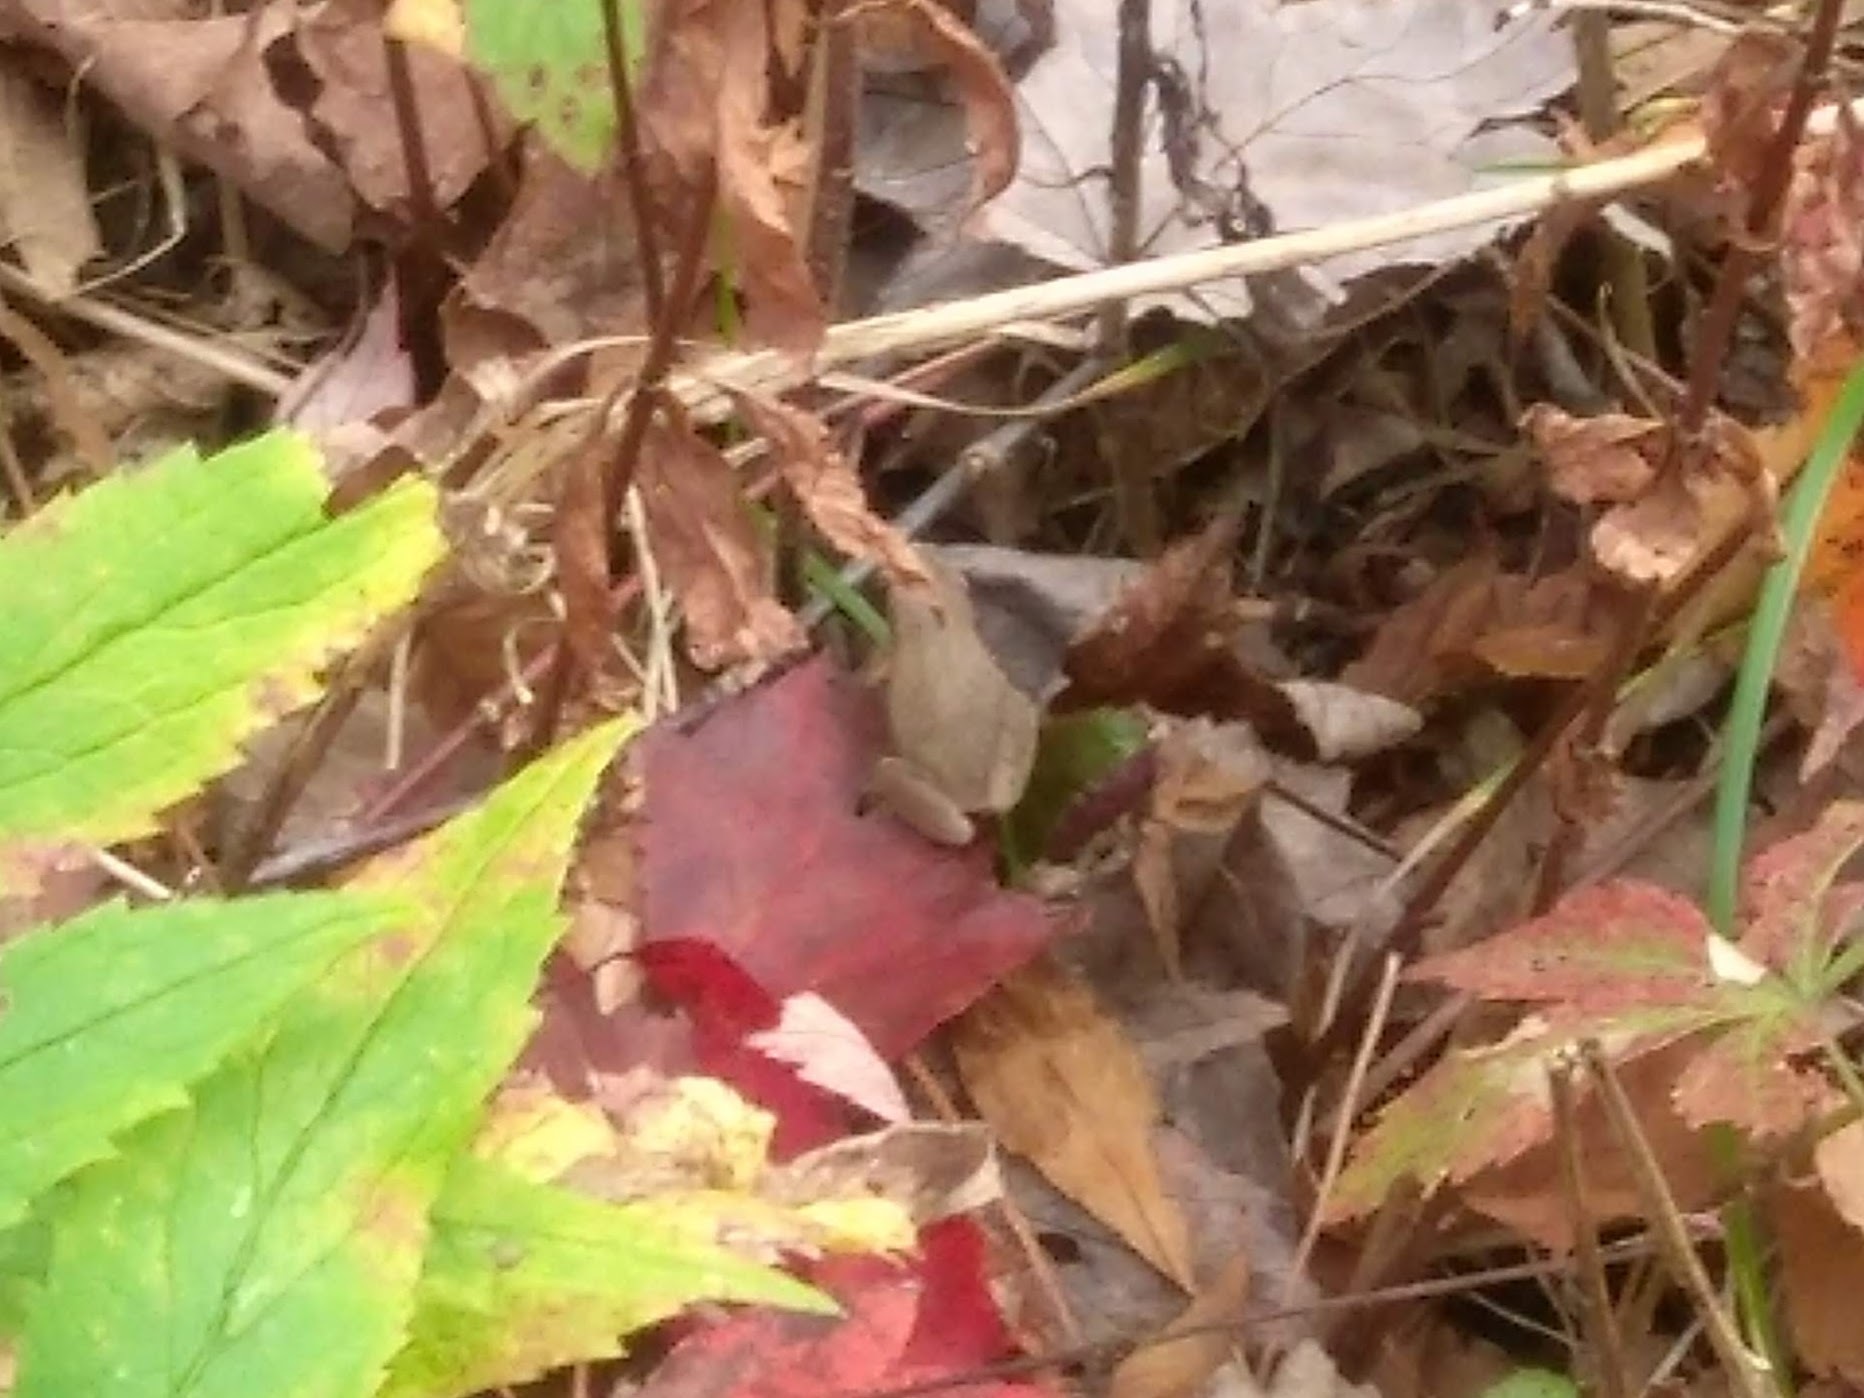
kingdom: Animalia
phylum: Chordata
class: Amphibia
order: Anura
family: Hylidae
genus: Pseudacris
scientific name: Pseudacris crucifer
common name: Spring peeper
